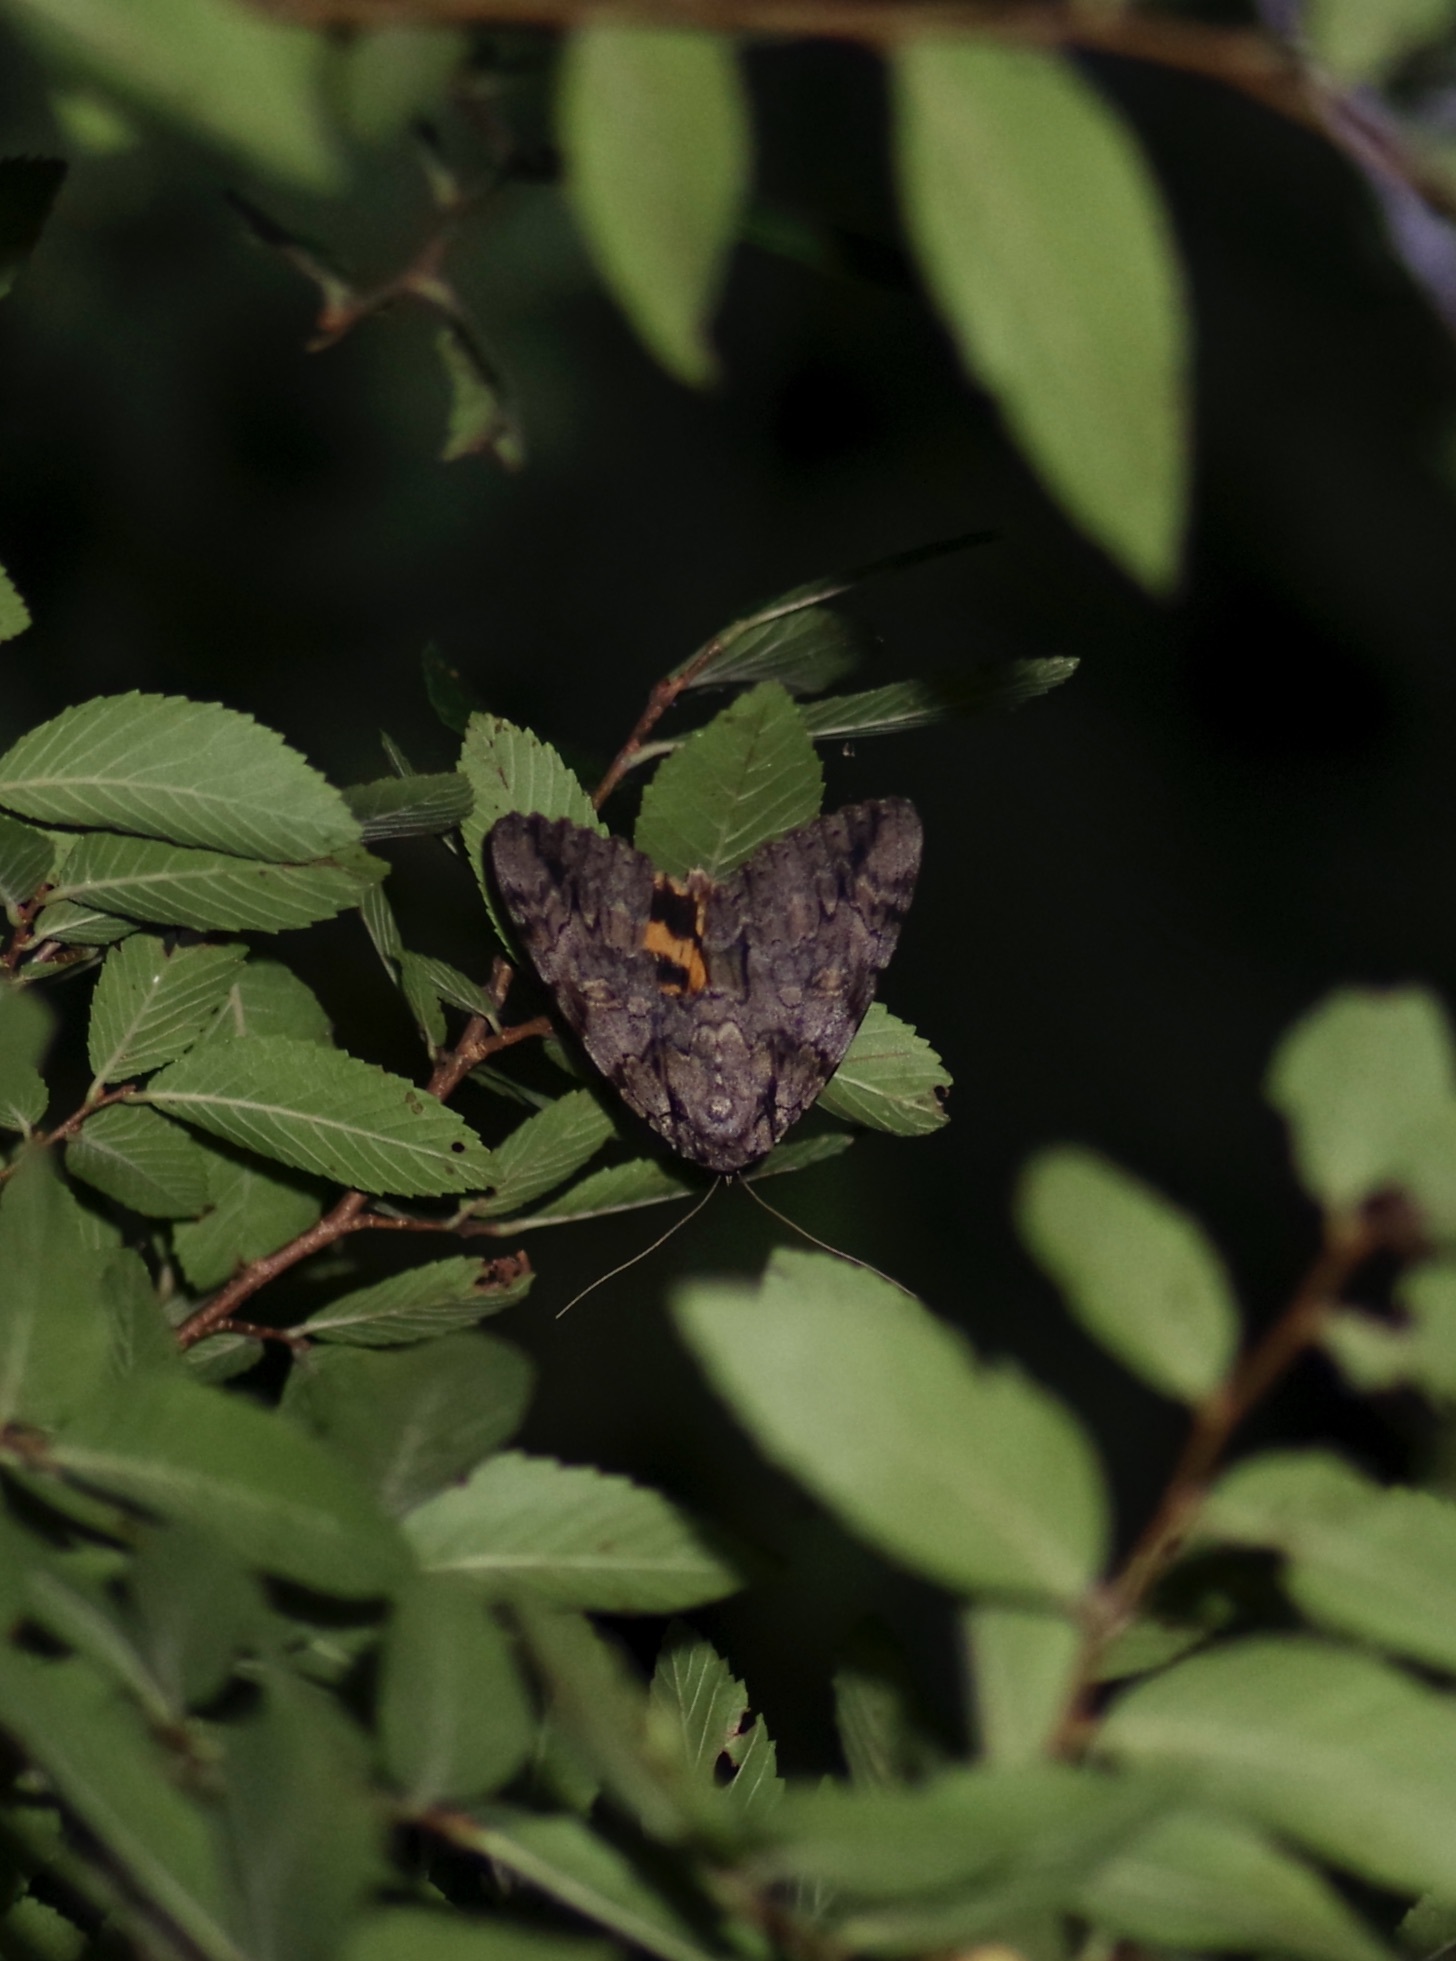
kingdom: Animalia
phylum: Arthropoda
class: Insecta
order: Lepidoptera
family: Erebidae
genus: Catocala
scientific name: Catocala neogama
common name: Bride underwing
